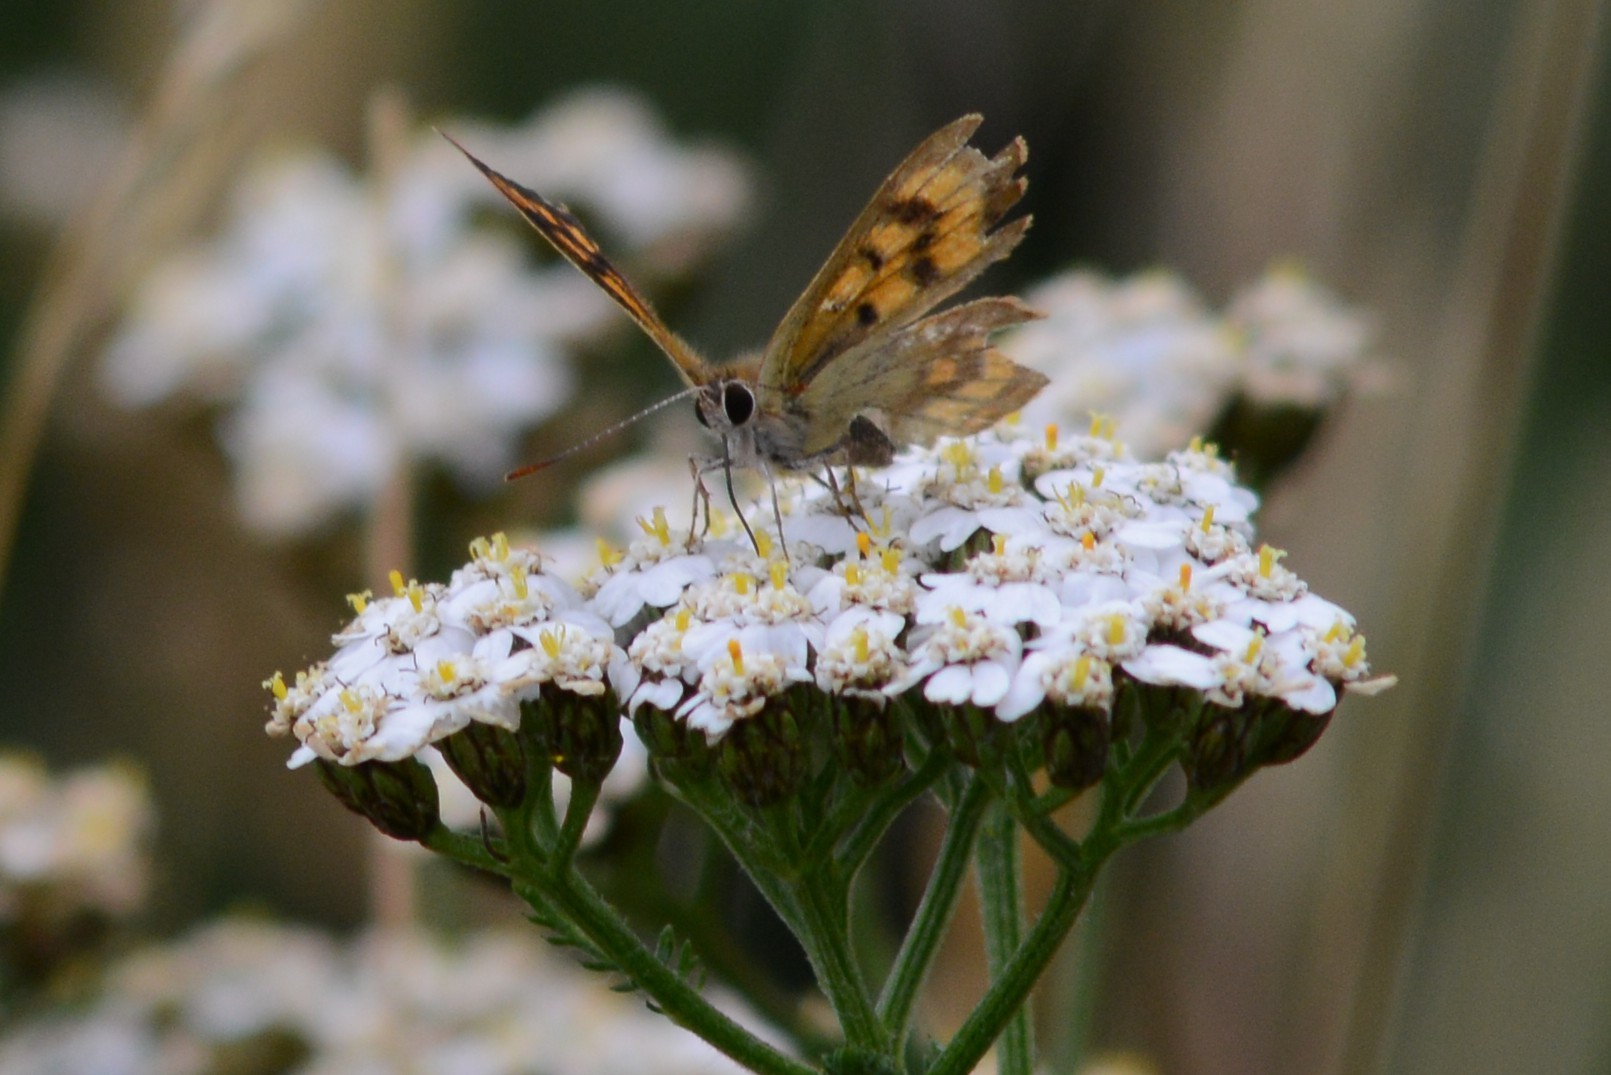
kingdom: Animalia
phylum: Arthropoda
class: Insecta
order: Lepidoptera
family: Lycaenidae
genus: Lycaena
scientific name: Lycaena feredayi
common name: Glade copper
